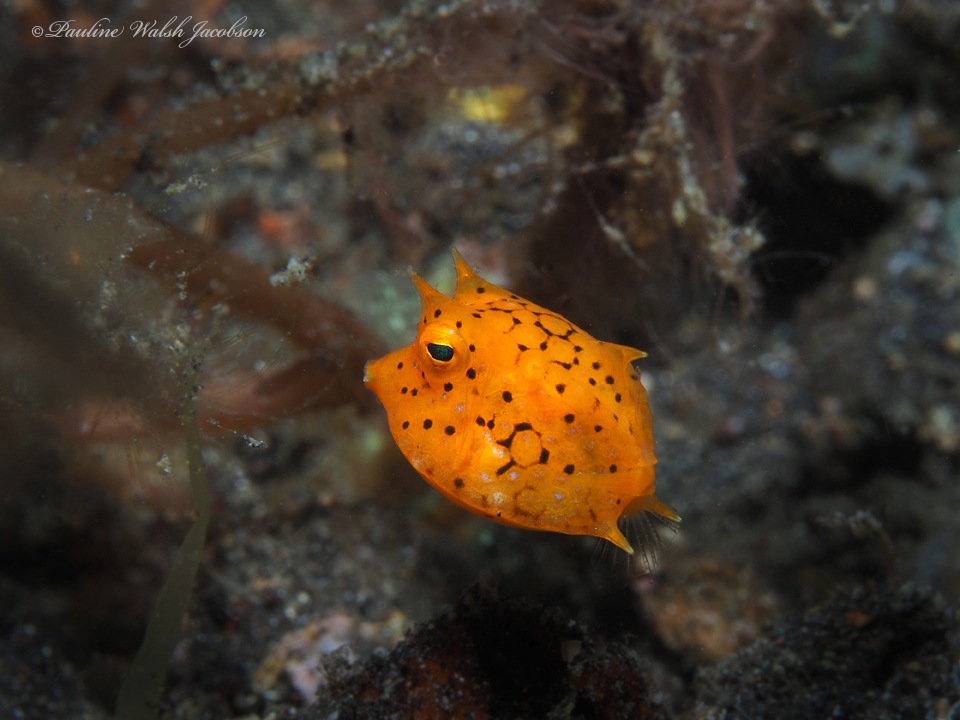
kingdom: Animalia
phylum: Chordata
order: Tetraodontiformes
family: Ostraciidae
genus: Lactoria
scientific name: Lactoria fornasini
